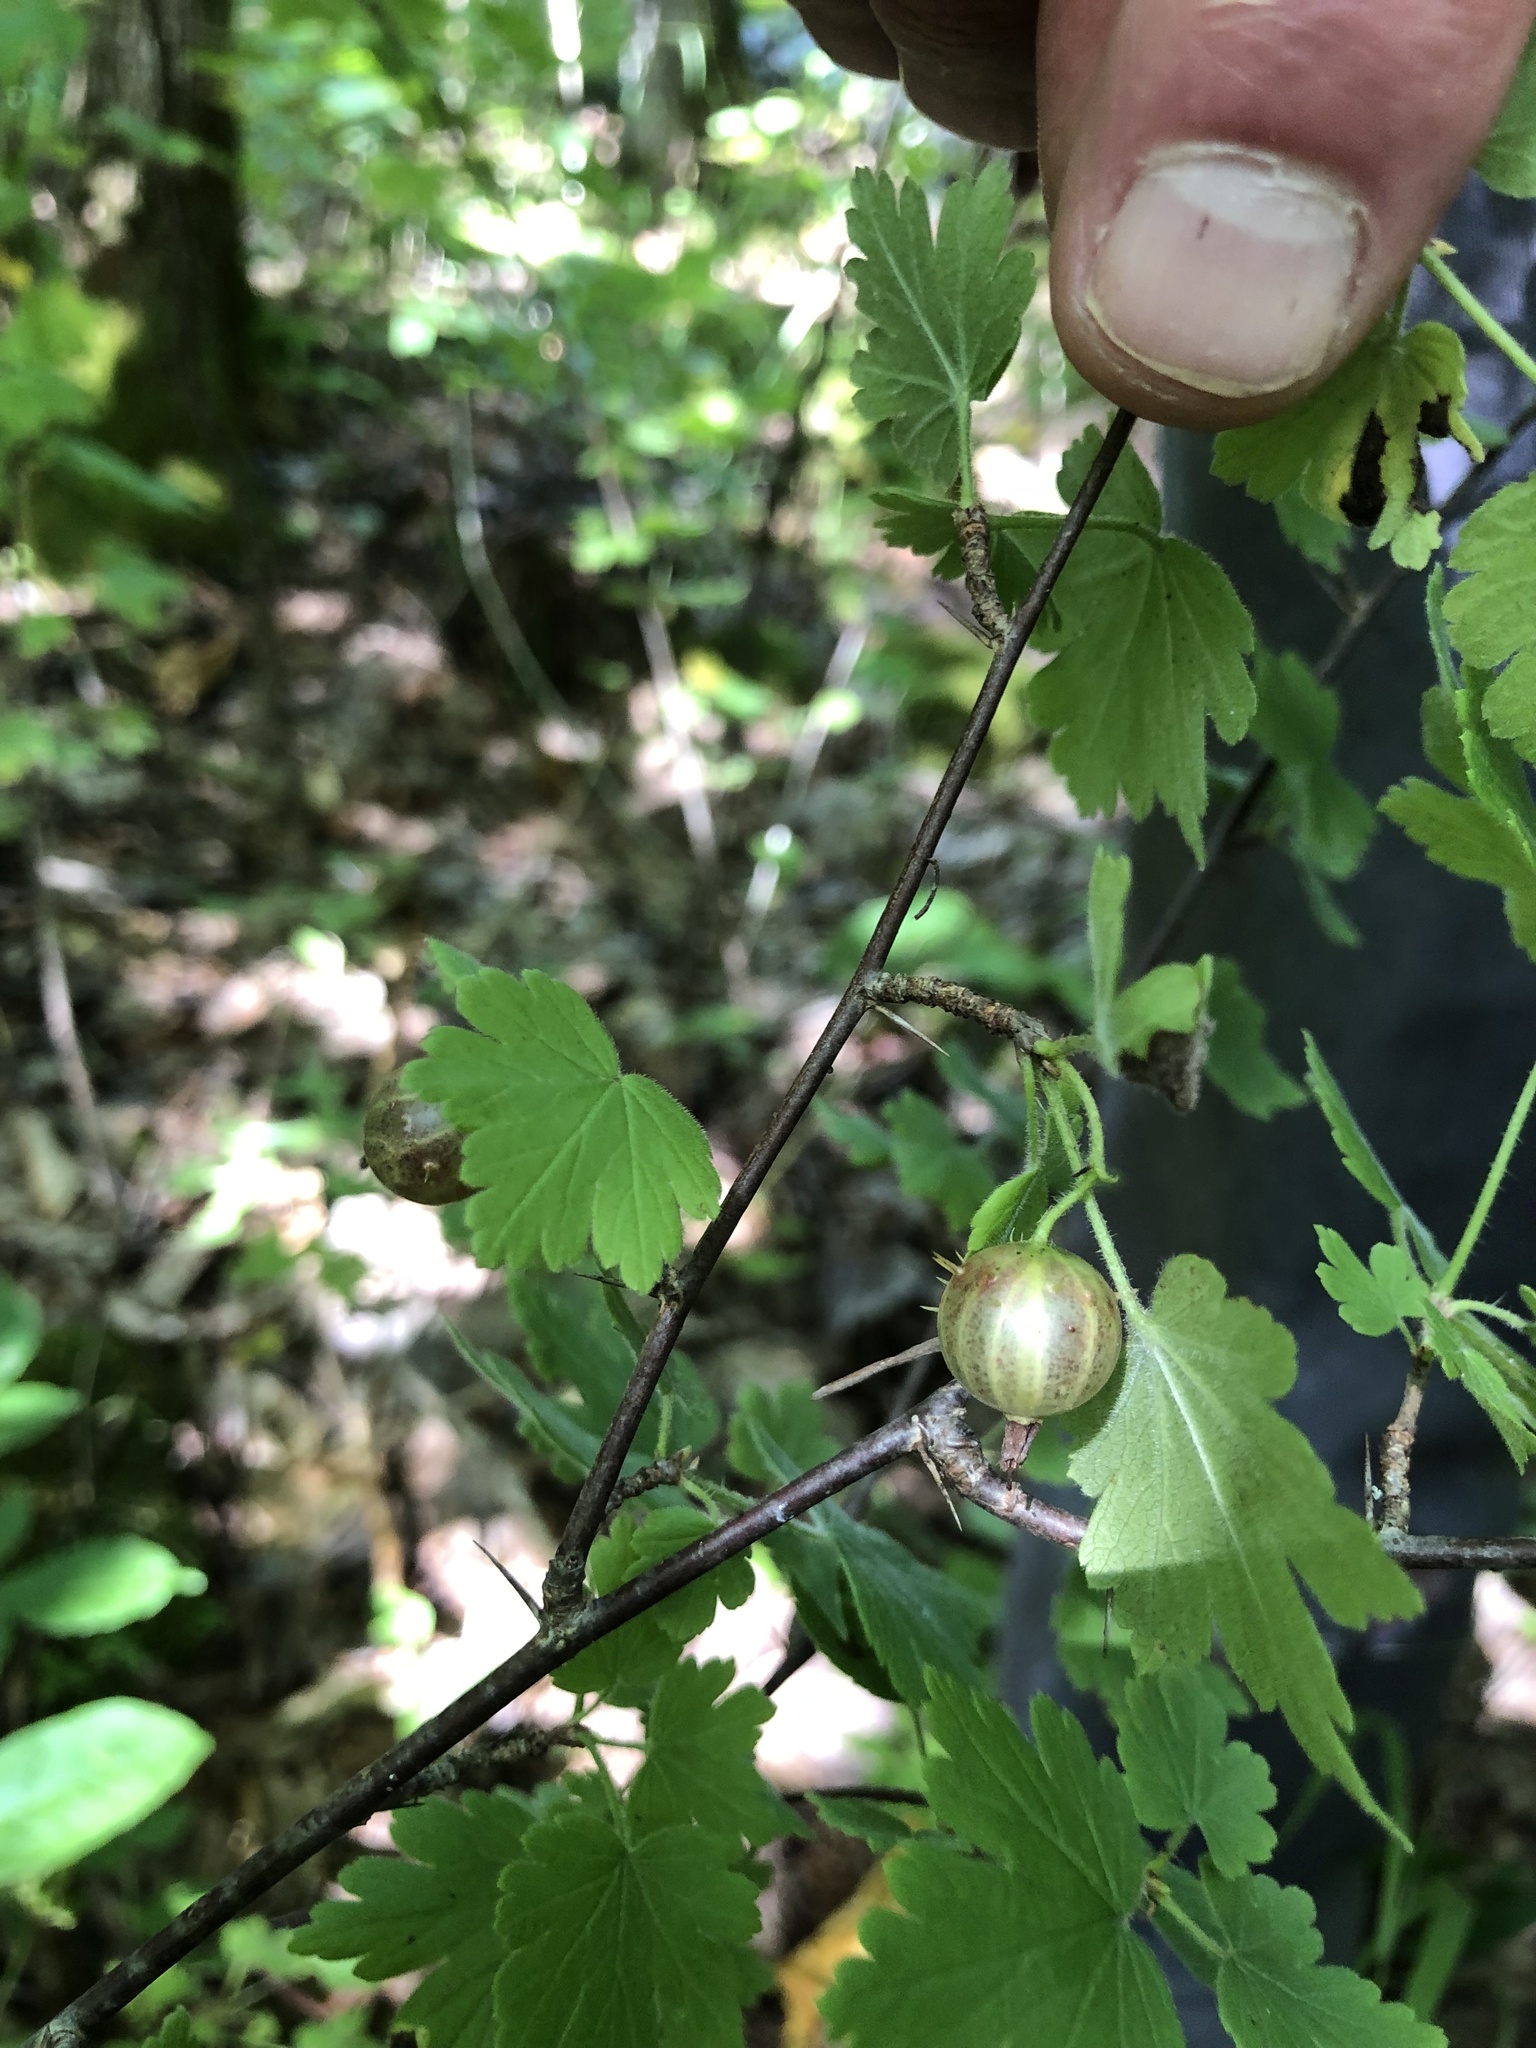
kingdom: Plantae
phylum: Tracheophyta
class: Magnoliopsida
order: Saxifragales
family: Grossulariaceae
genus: Ribes
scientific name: Ribes cynosbati
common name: American gooseberry
